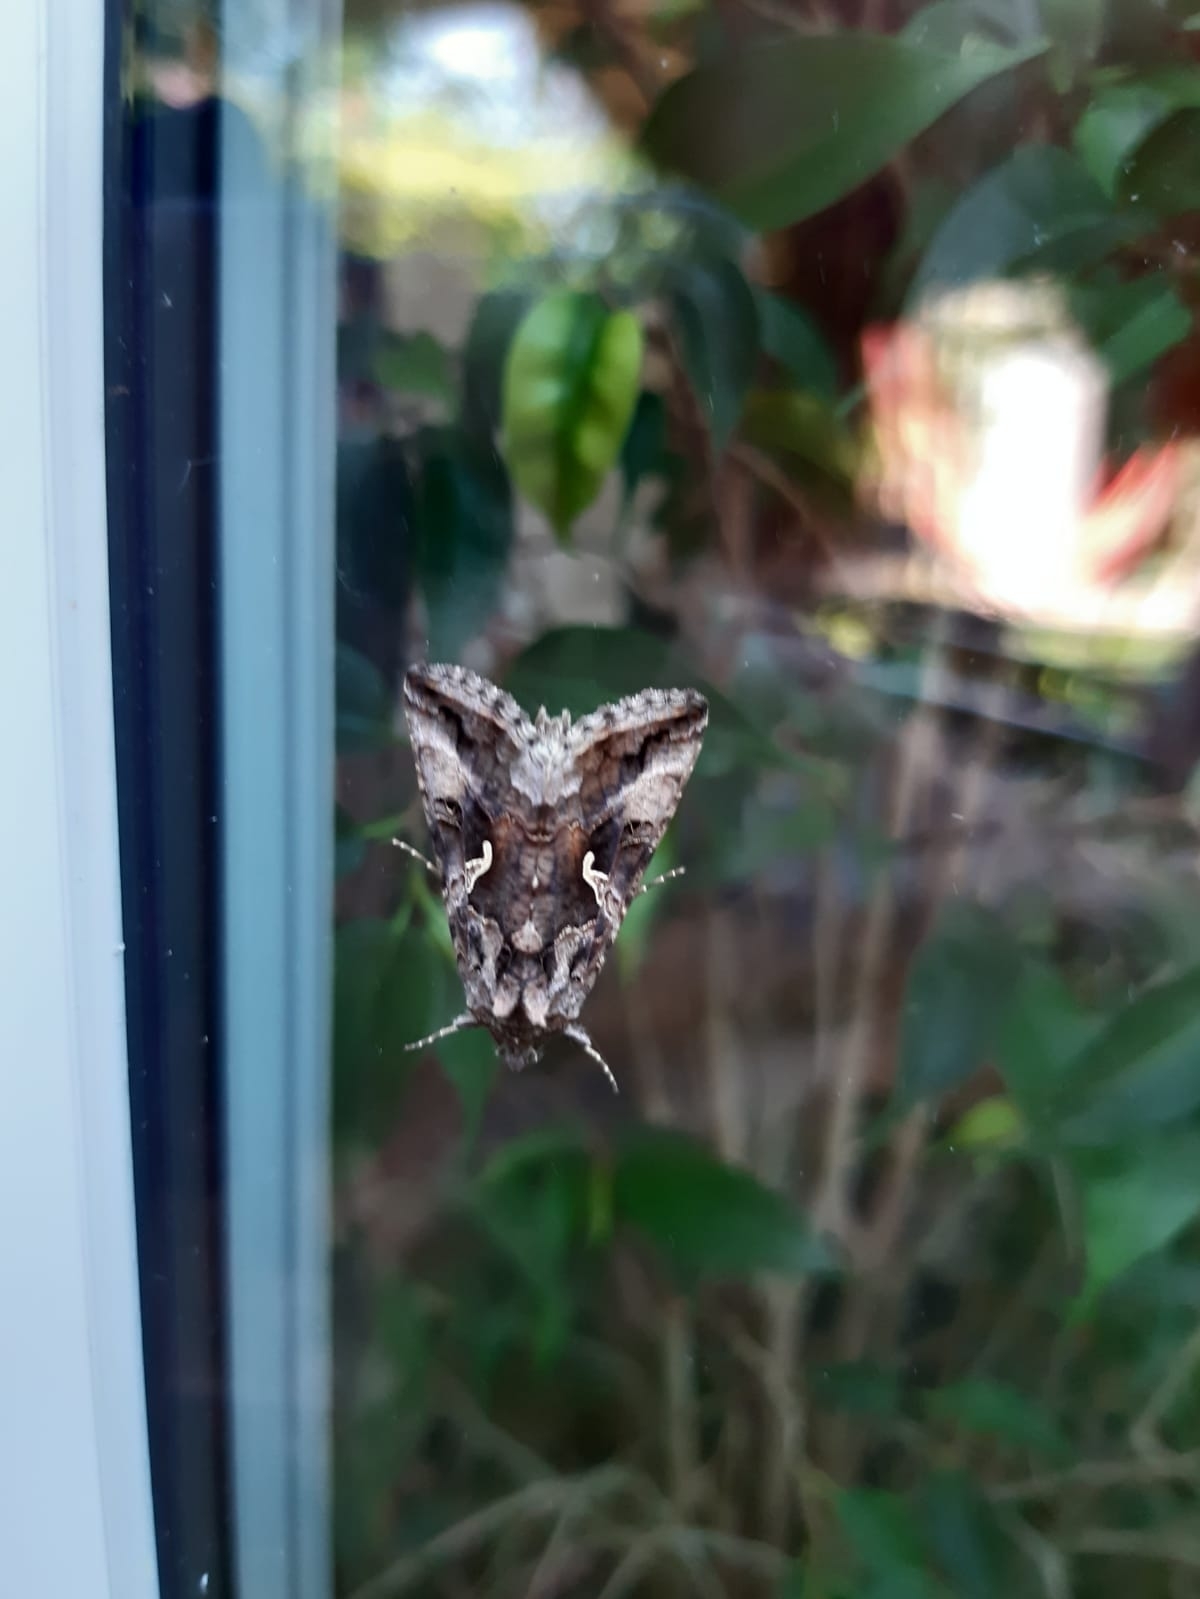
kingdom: Animalia
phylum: Arthropoda
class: Insecta
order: Lepidoptera
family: Noctuidae
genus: Autographa
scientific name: Autographa gamma
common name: Silver y
